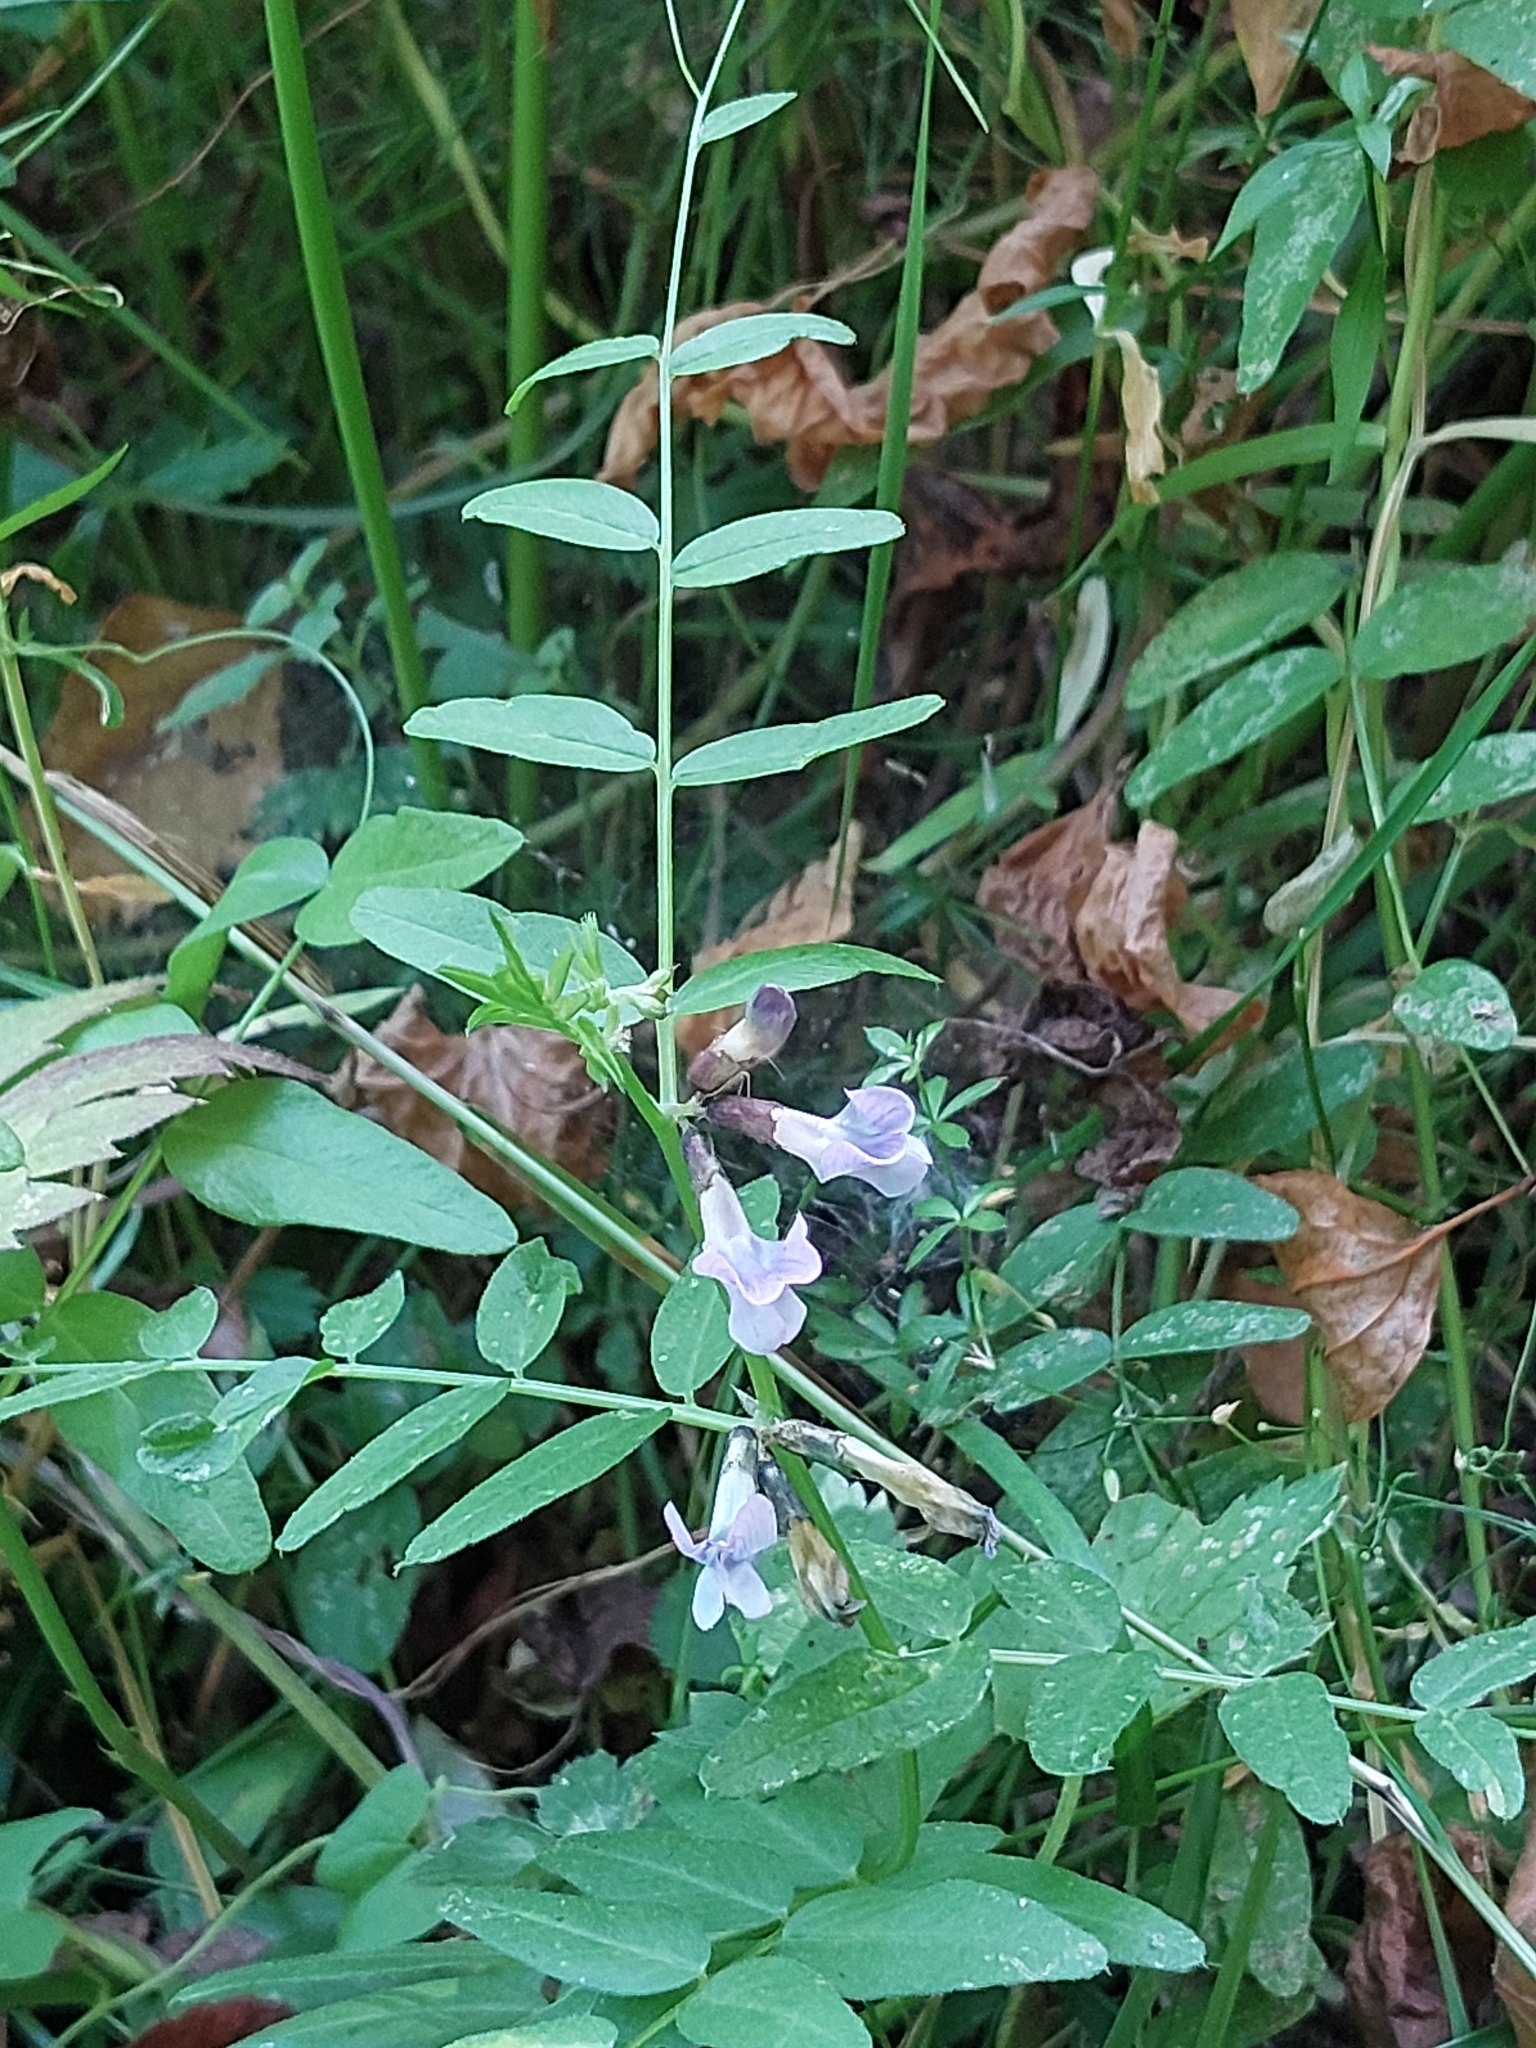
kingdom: Plantae
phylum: Tracheophyta
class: Magnoliopsida
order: Fabales
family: Fabaceae
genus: Vicia
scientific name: Vicia sepium
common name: Bush vetch
